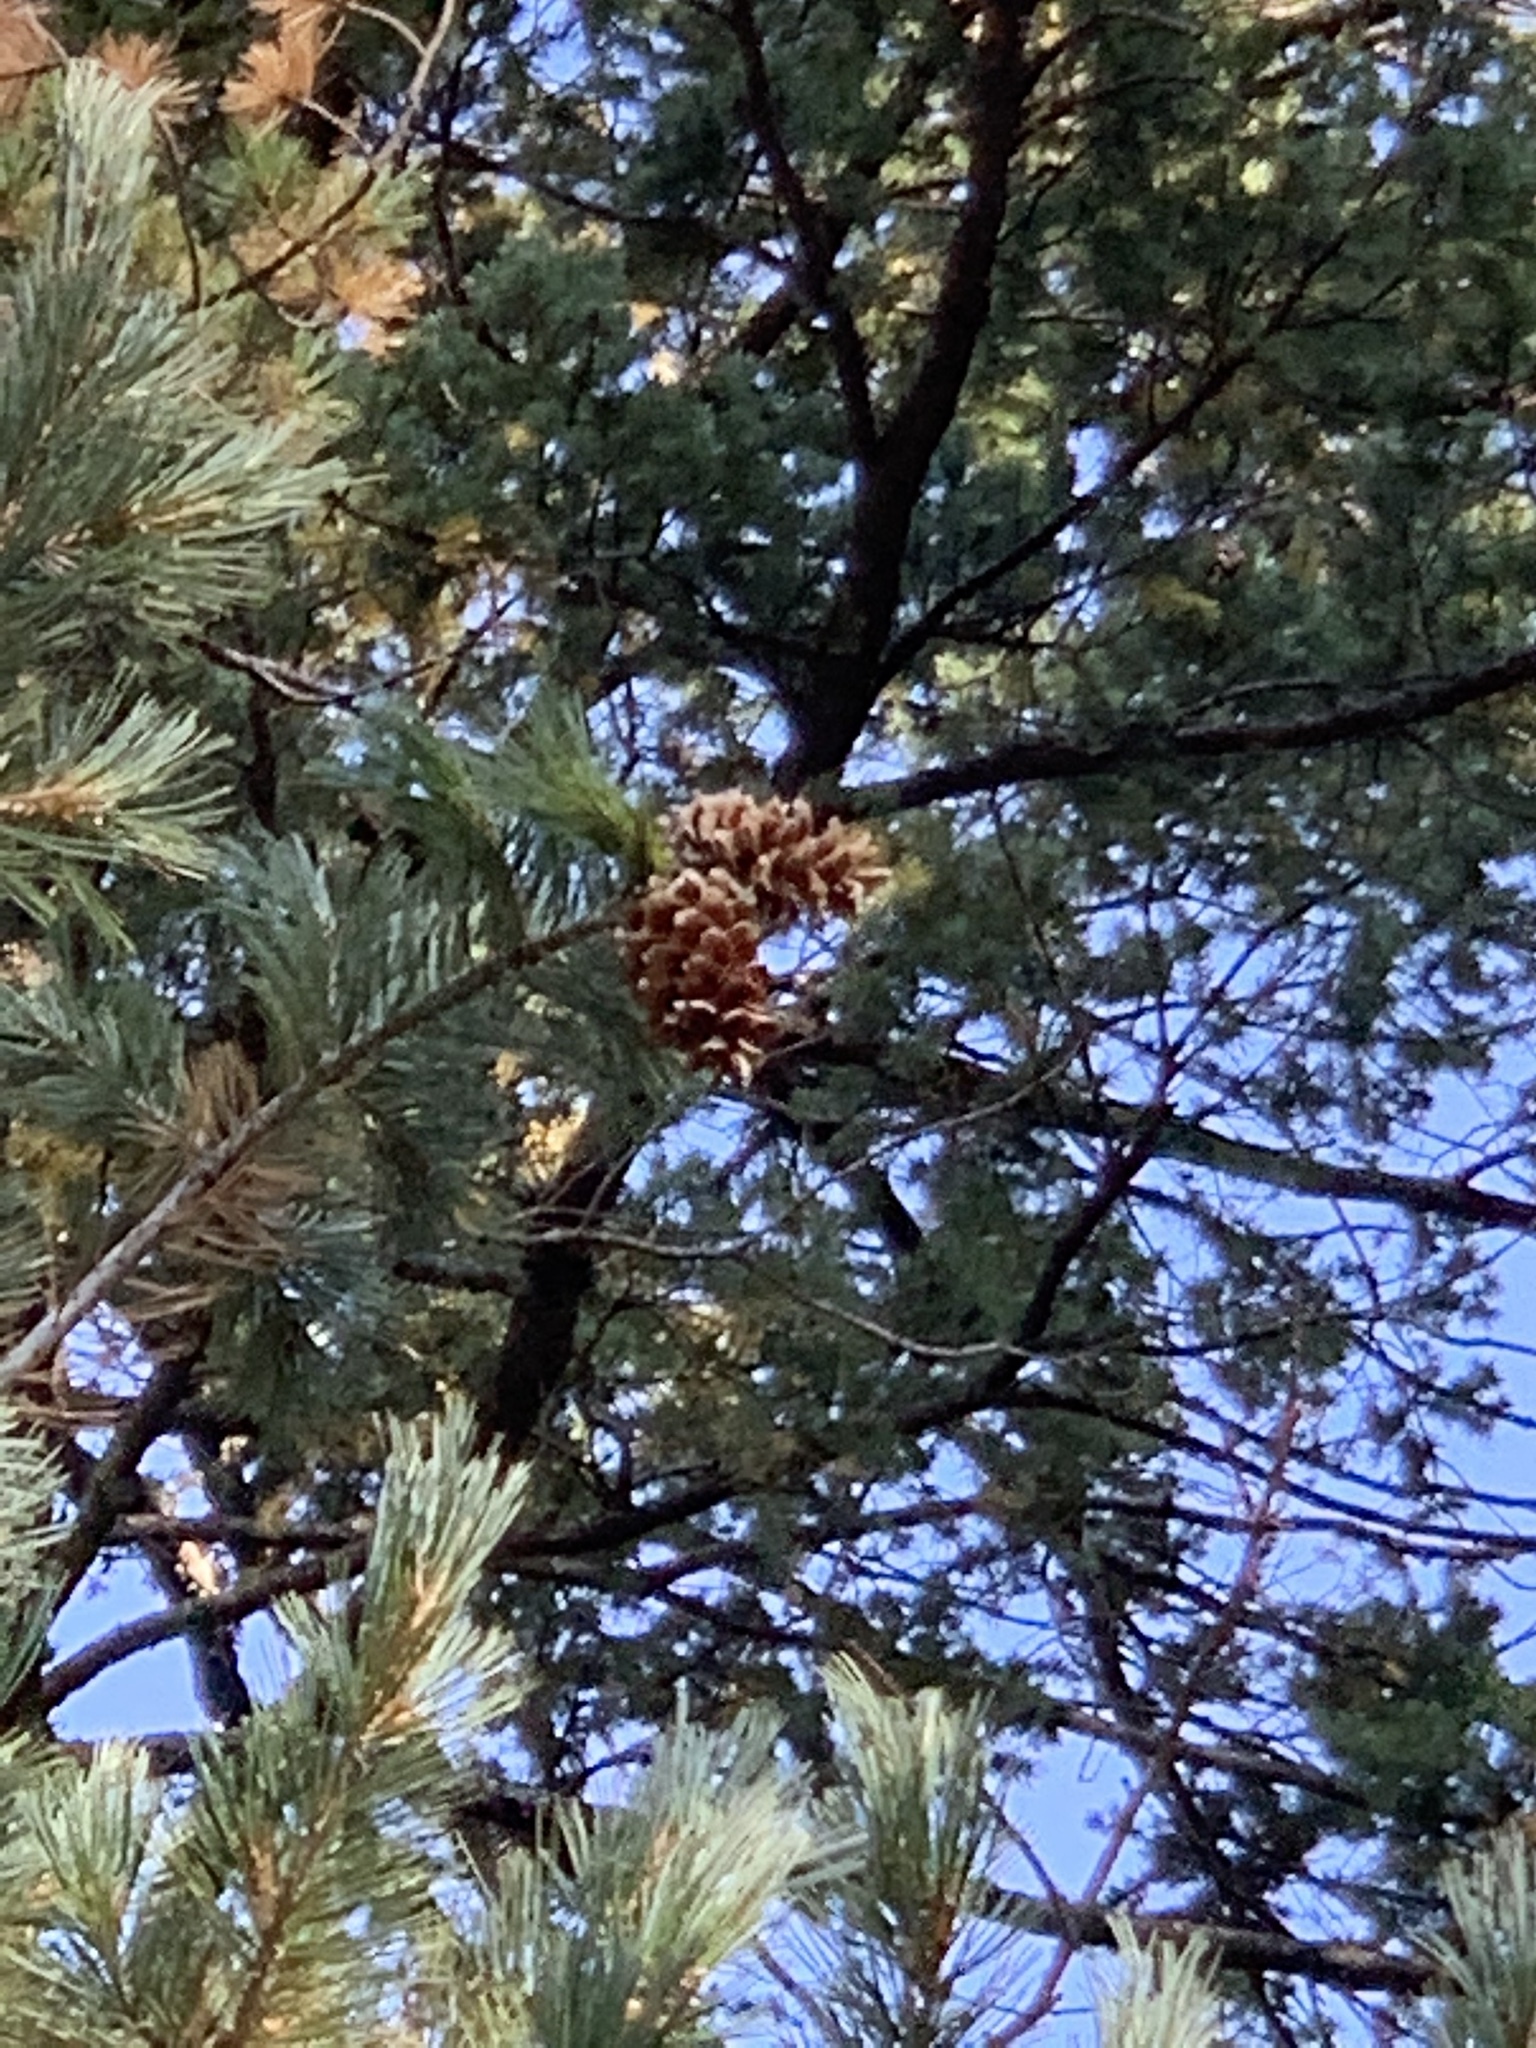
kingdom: Plantae
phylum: Tracheophyta
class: Pinopsida
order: Pinales
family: Pinaceae
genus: Pinus
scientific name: Pinus strobiformis
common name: Southwestern white pine
